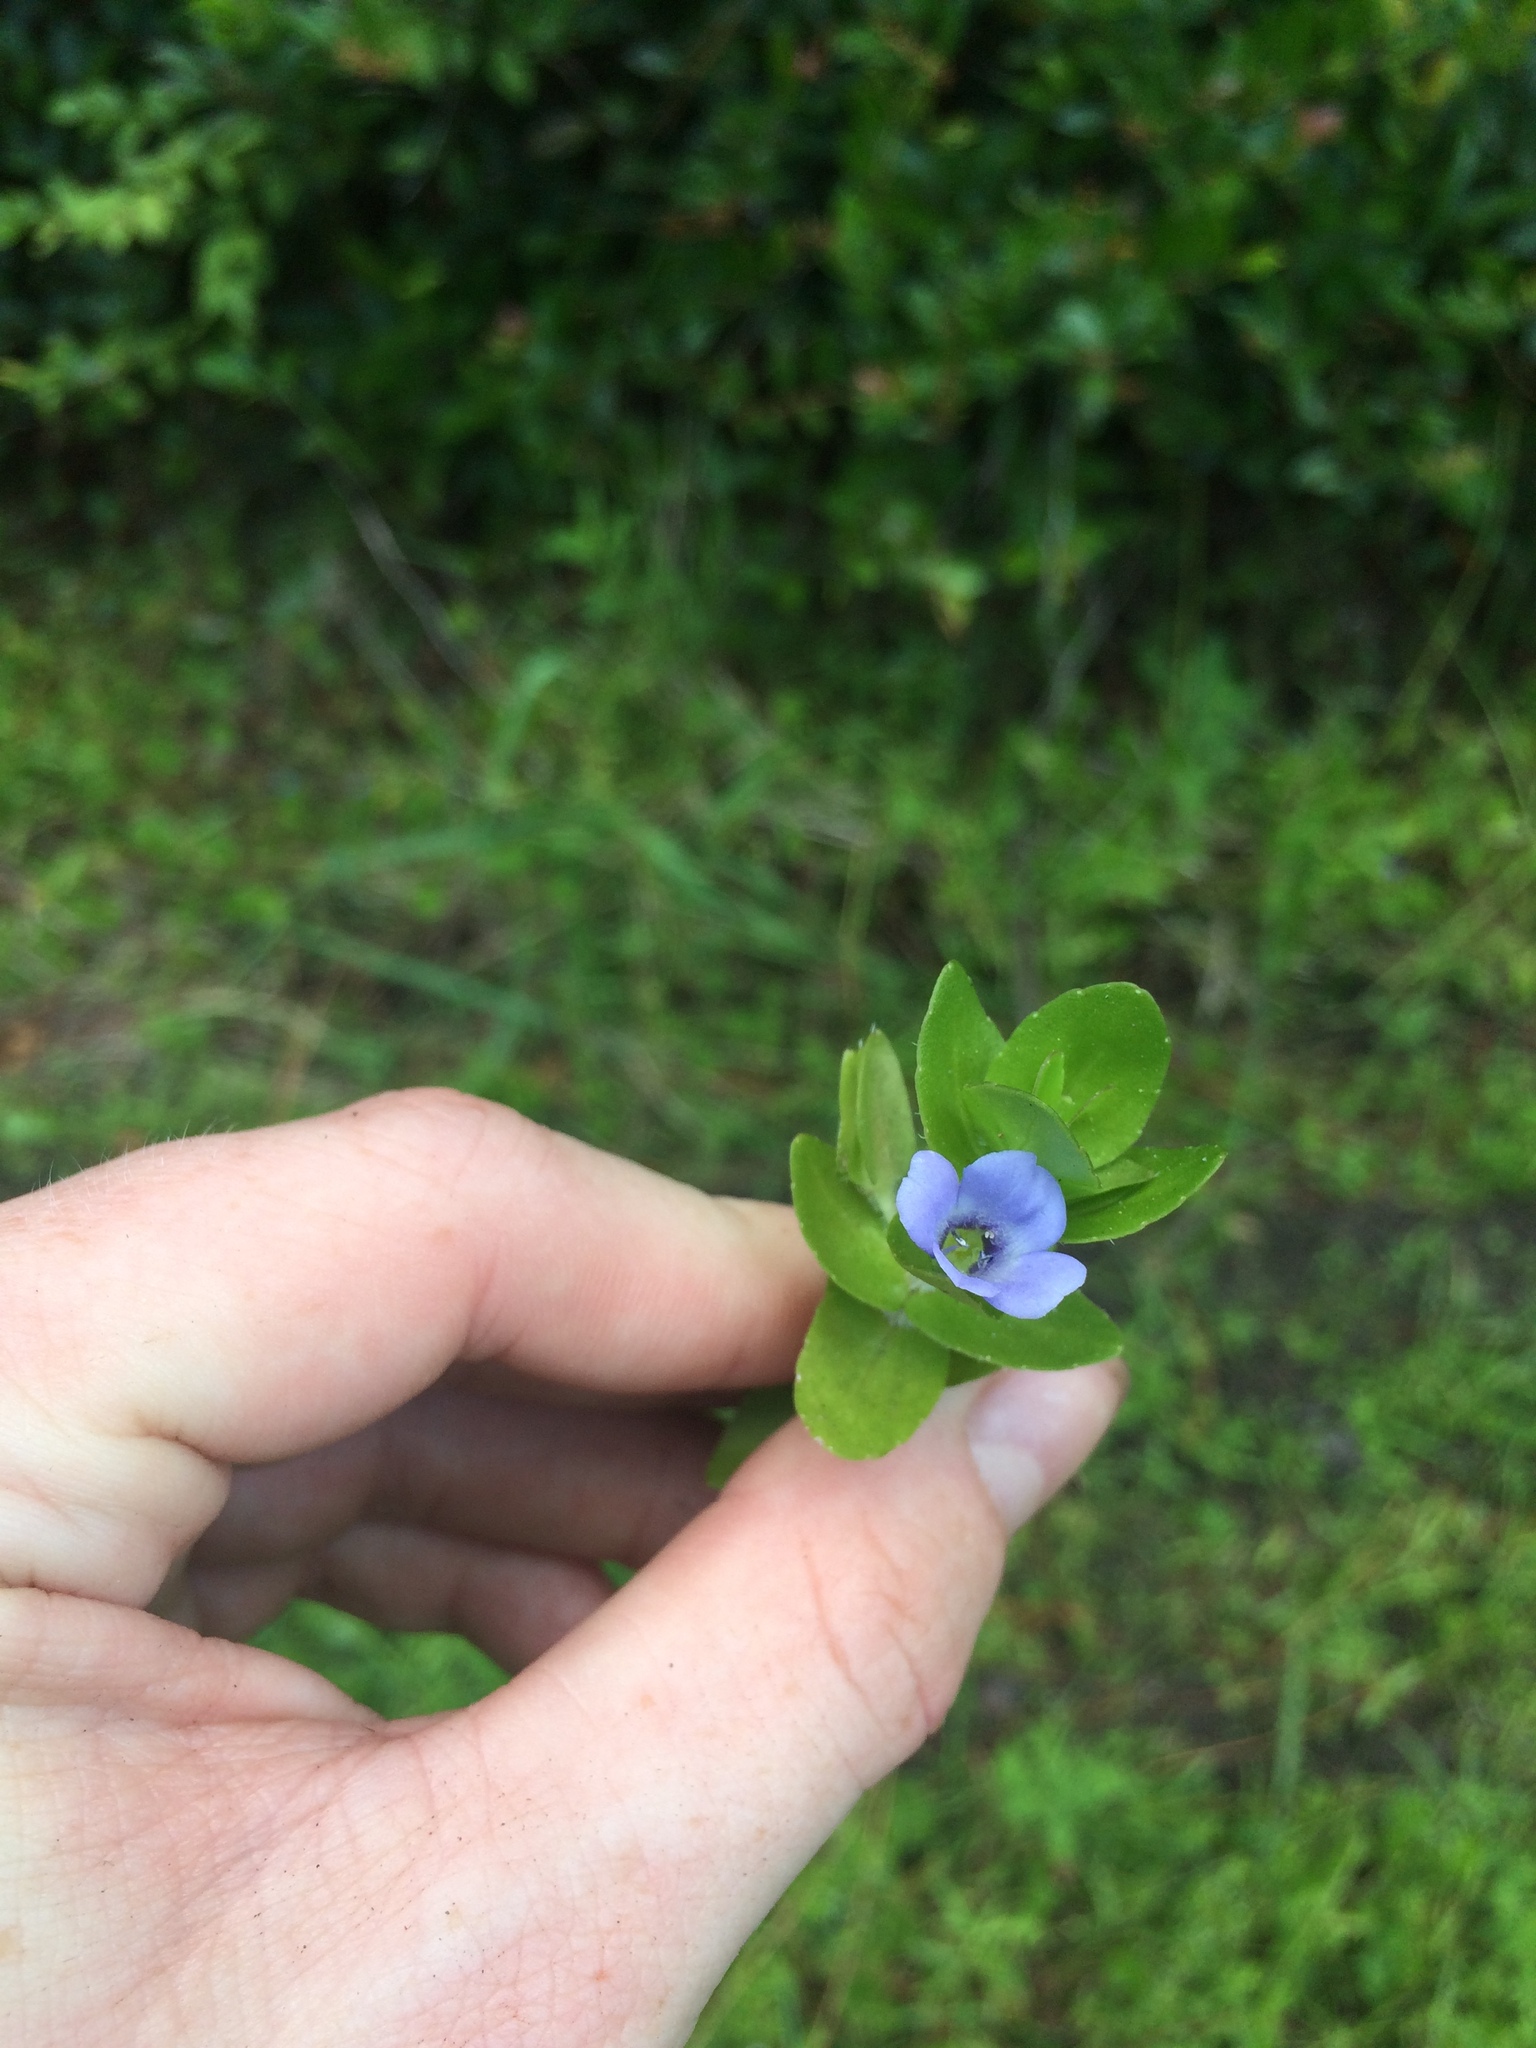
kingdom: Plantae
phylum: Tracheophyta
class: Magnoliopsida
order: Lamiales
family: Plantaginaceae
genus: Bacopa
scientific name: Bacopa caroliniana
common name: Lemon bacopa
